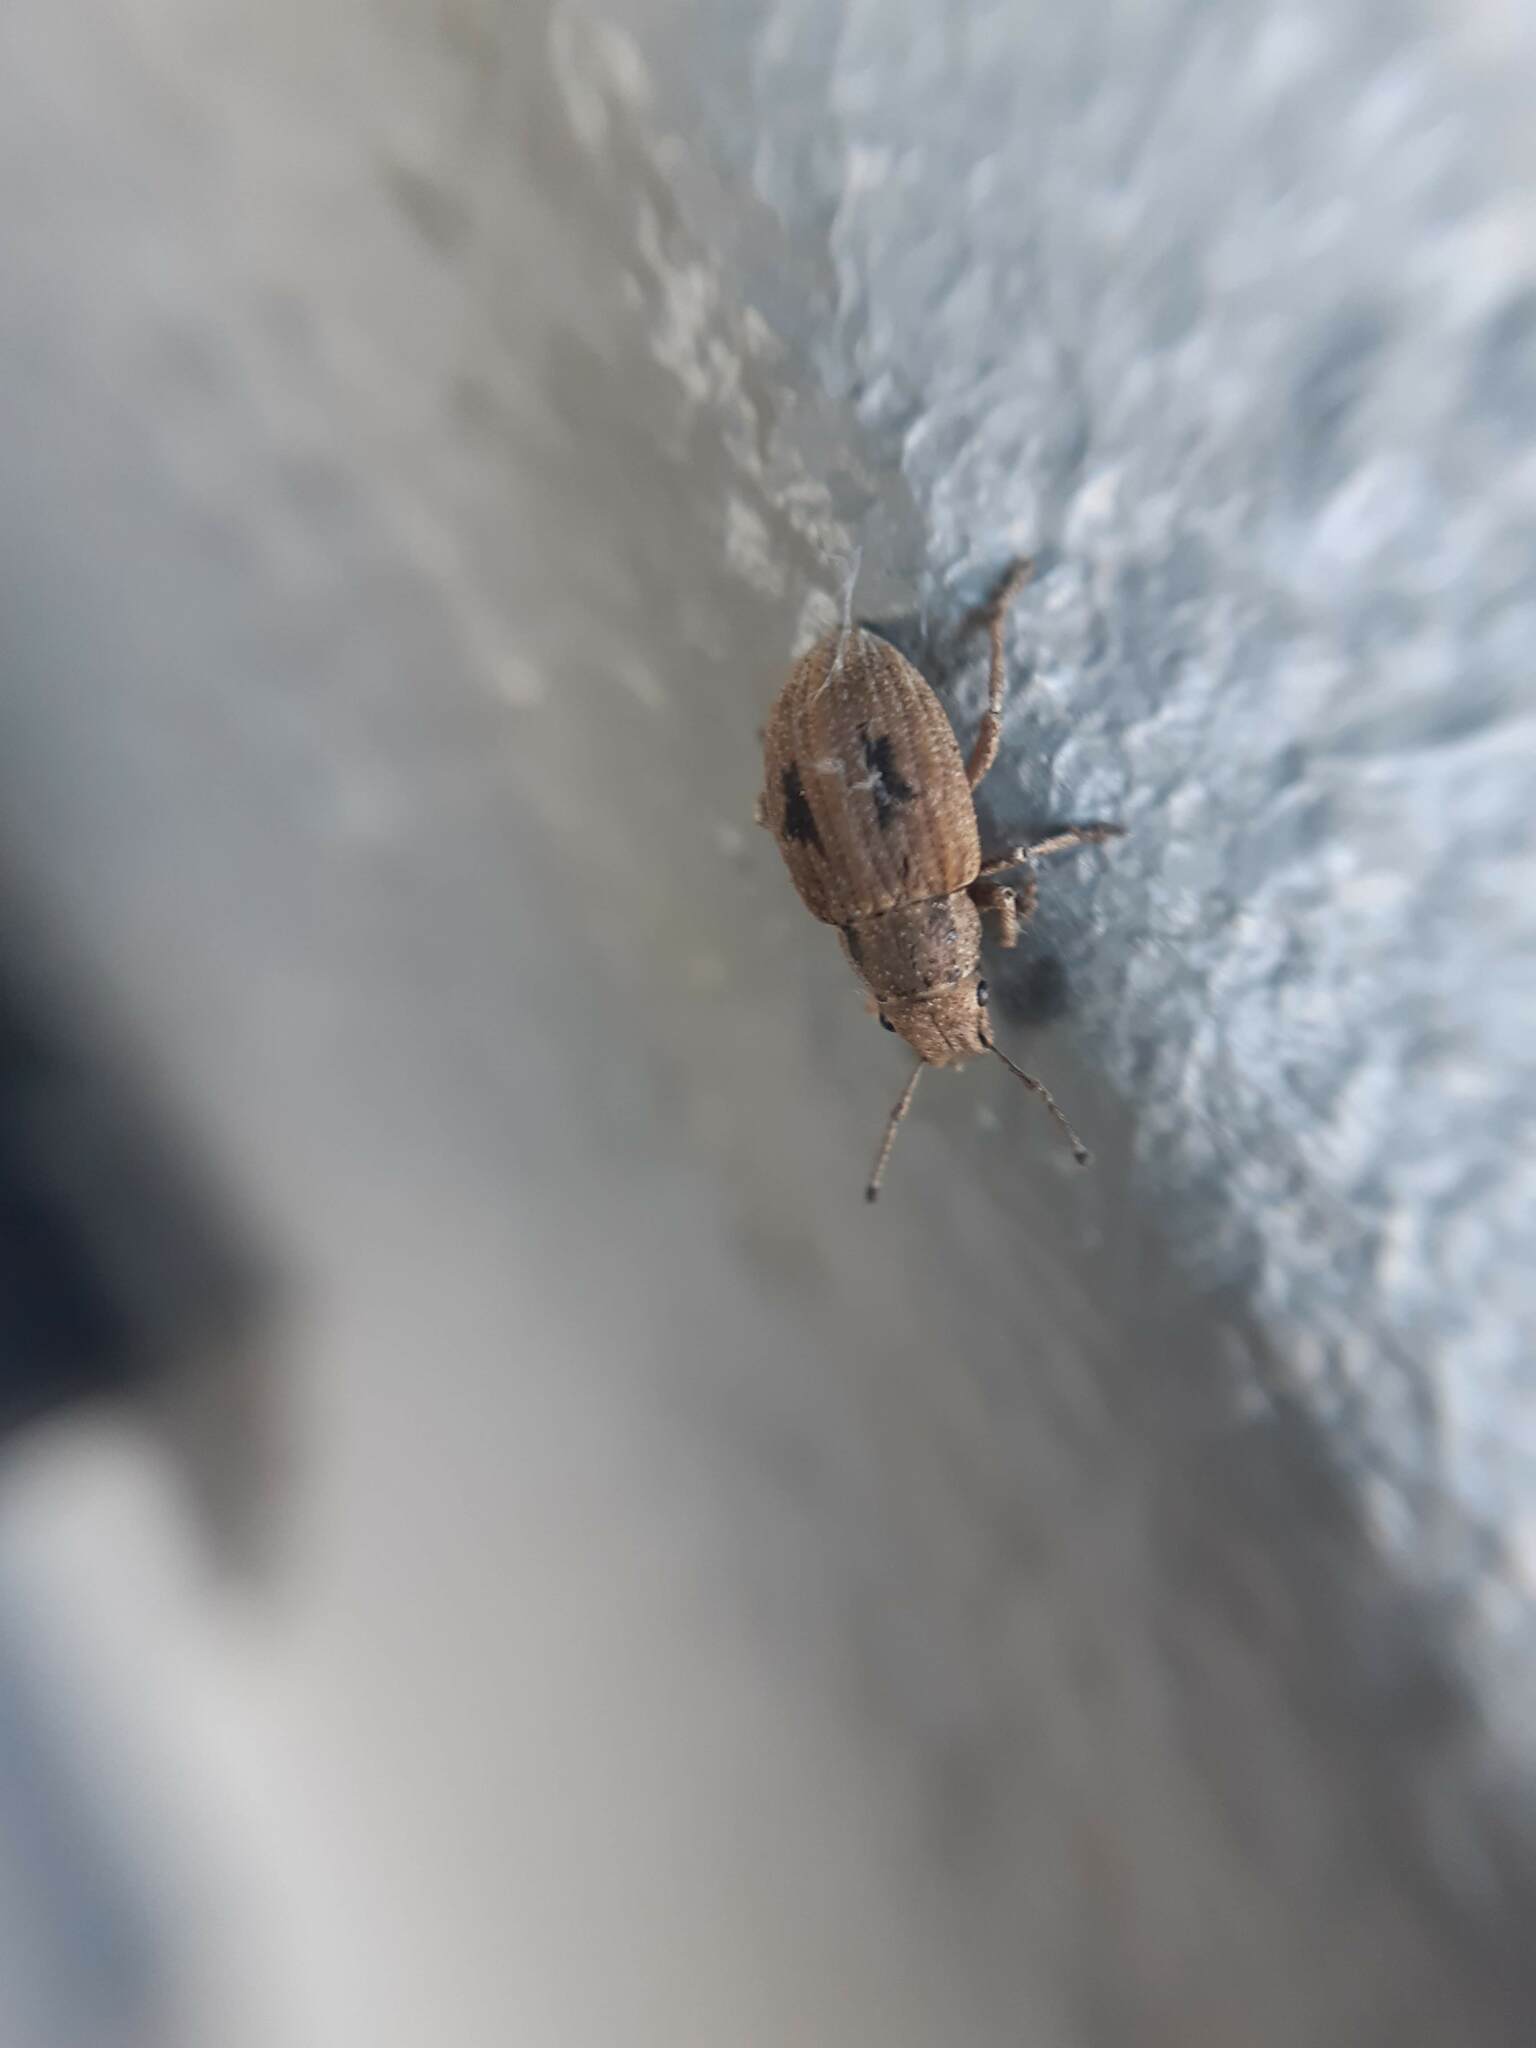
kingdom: Animalia
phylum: Arthropoda
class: Insecta
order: Coleoptera
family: Curculionidae
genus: Eurymetopus
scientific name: Eurymetopus birabeni
